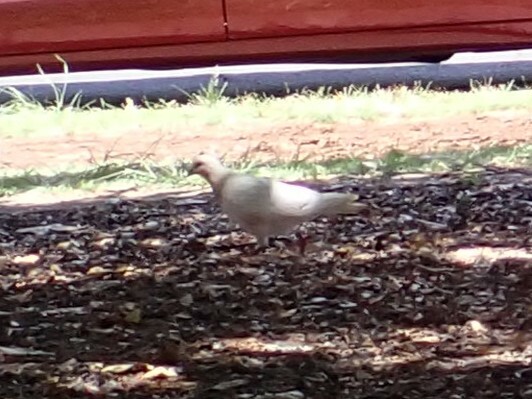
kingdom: Animalia
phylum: Chordata
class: Aves
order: Columbiformes
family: Columbidae
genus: Columba
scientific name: Columba livia
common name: Rock pigeon
